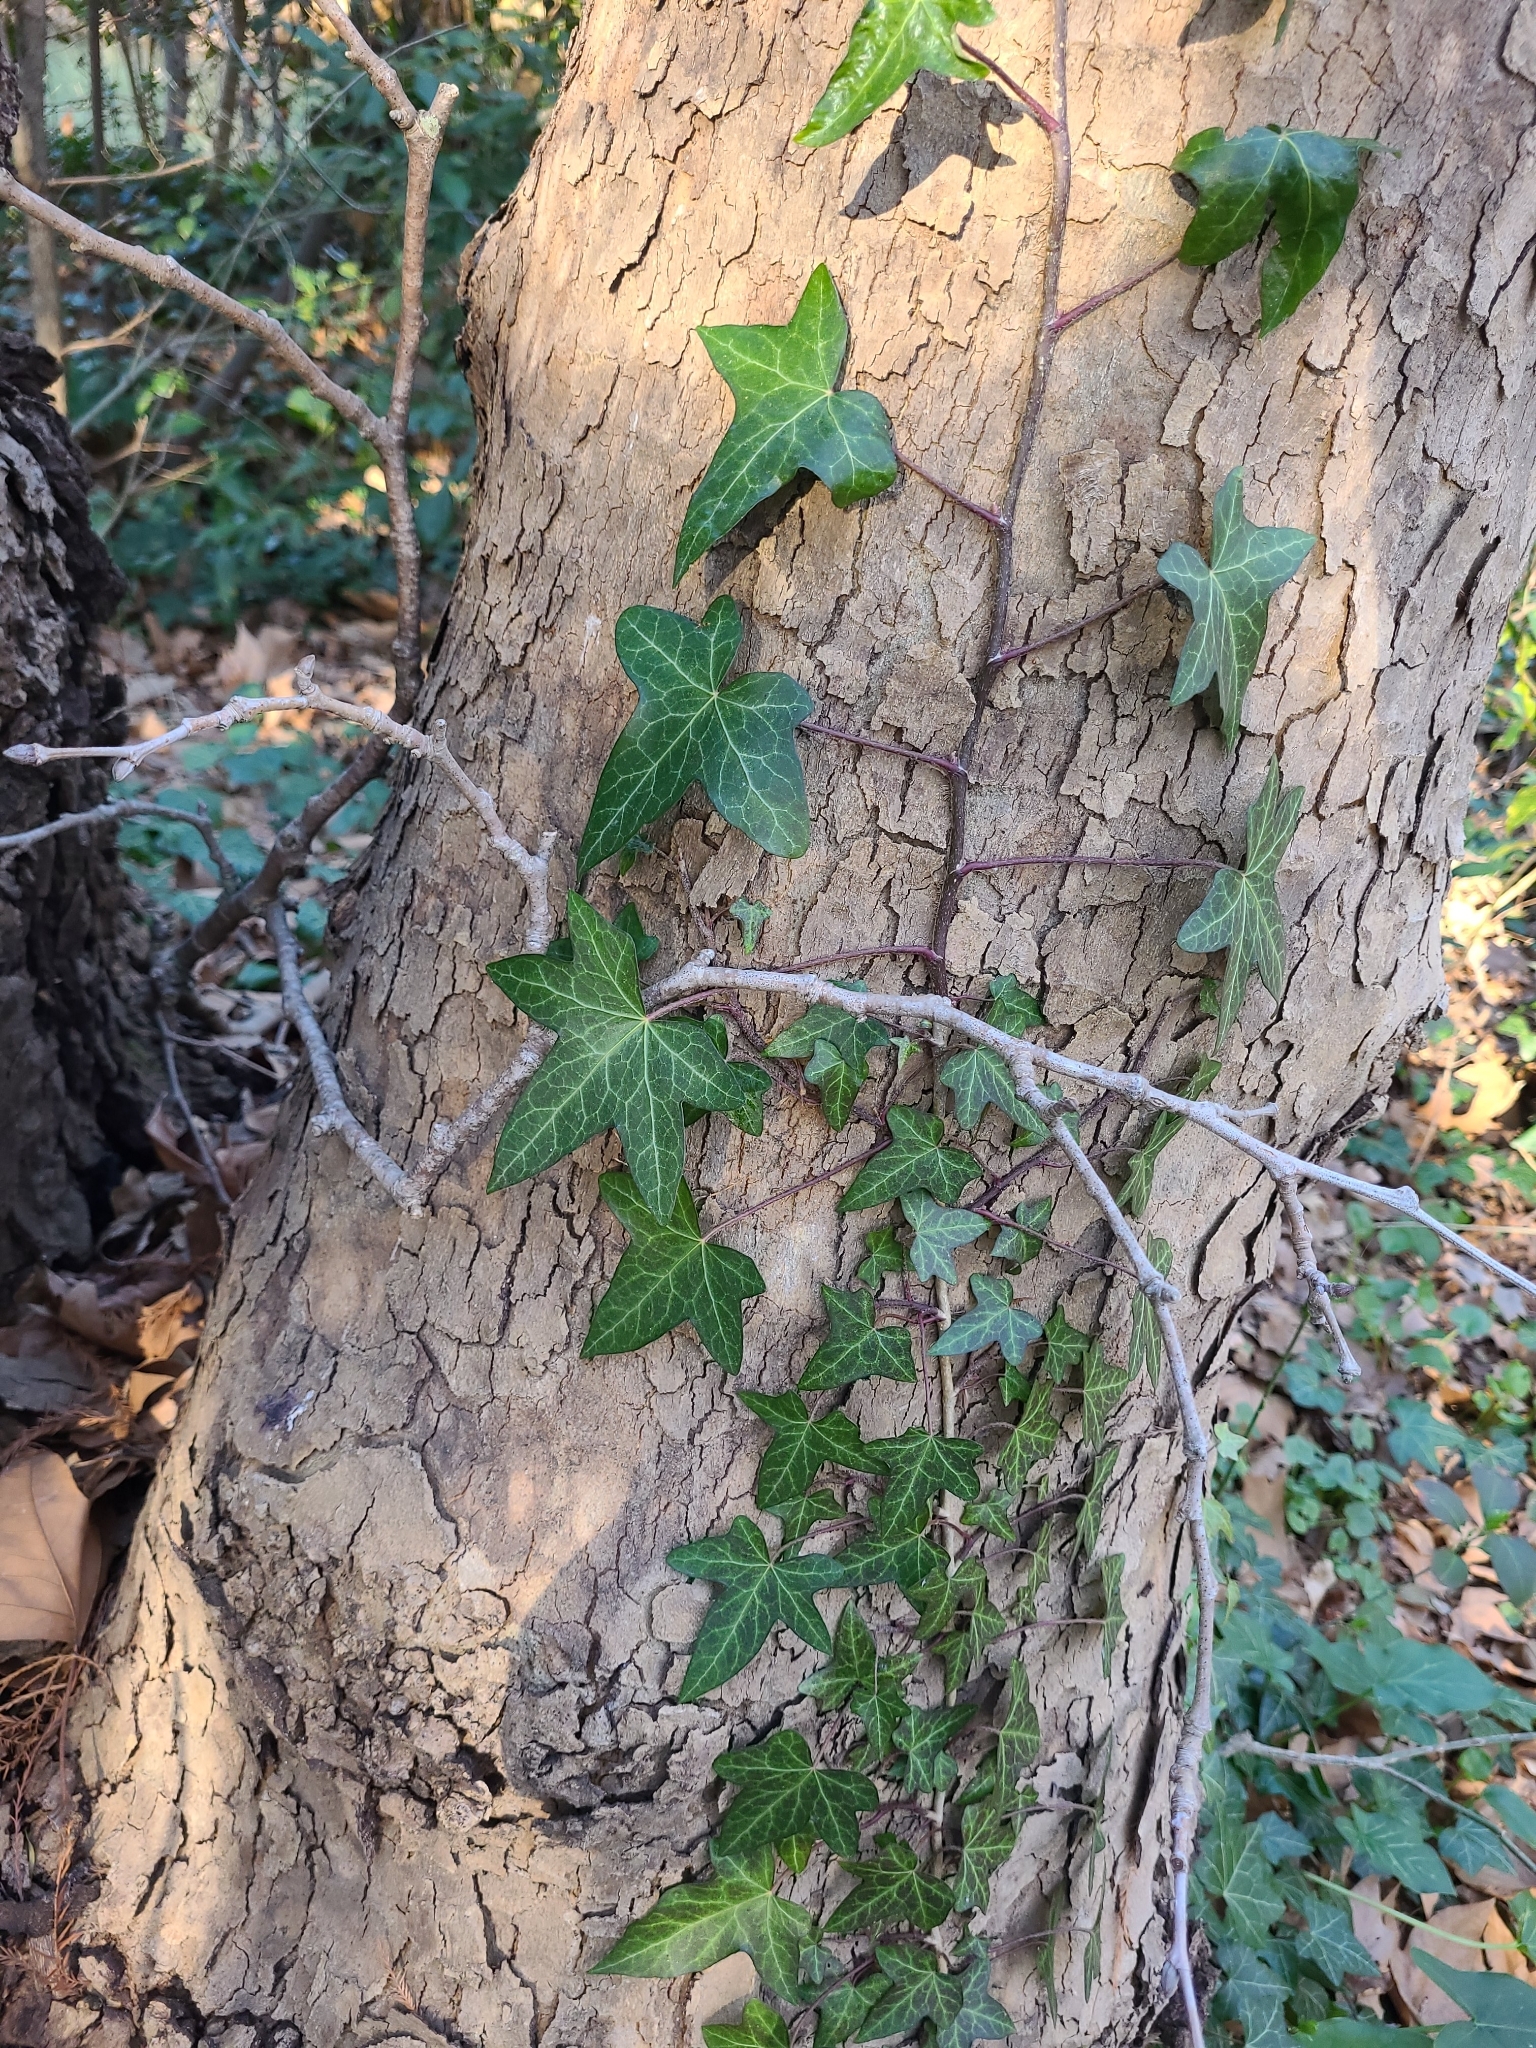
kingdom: Plantae
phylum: Tracheophyta
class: Magnoliopsida
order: Apiales
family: Araliaceae
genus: Hedera
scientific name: Hedera helix
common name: Ivy
